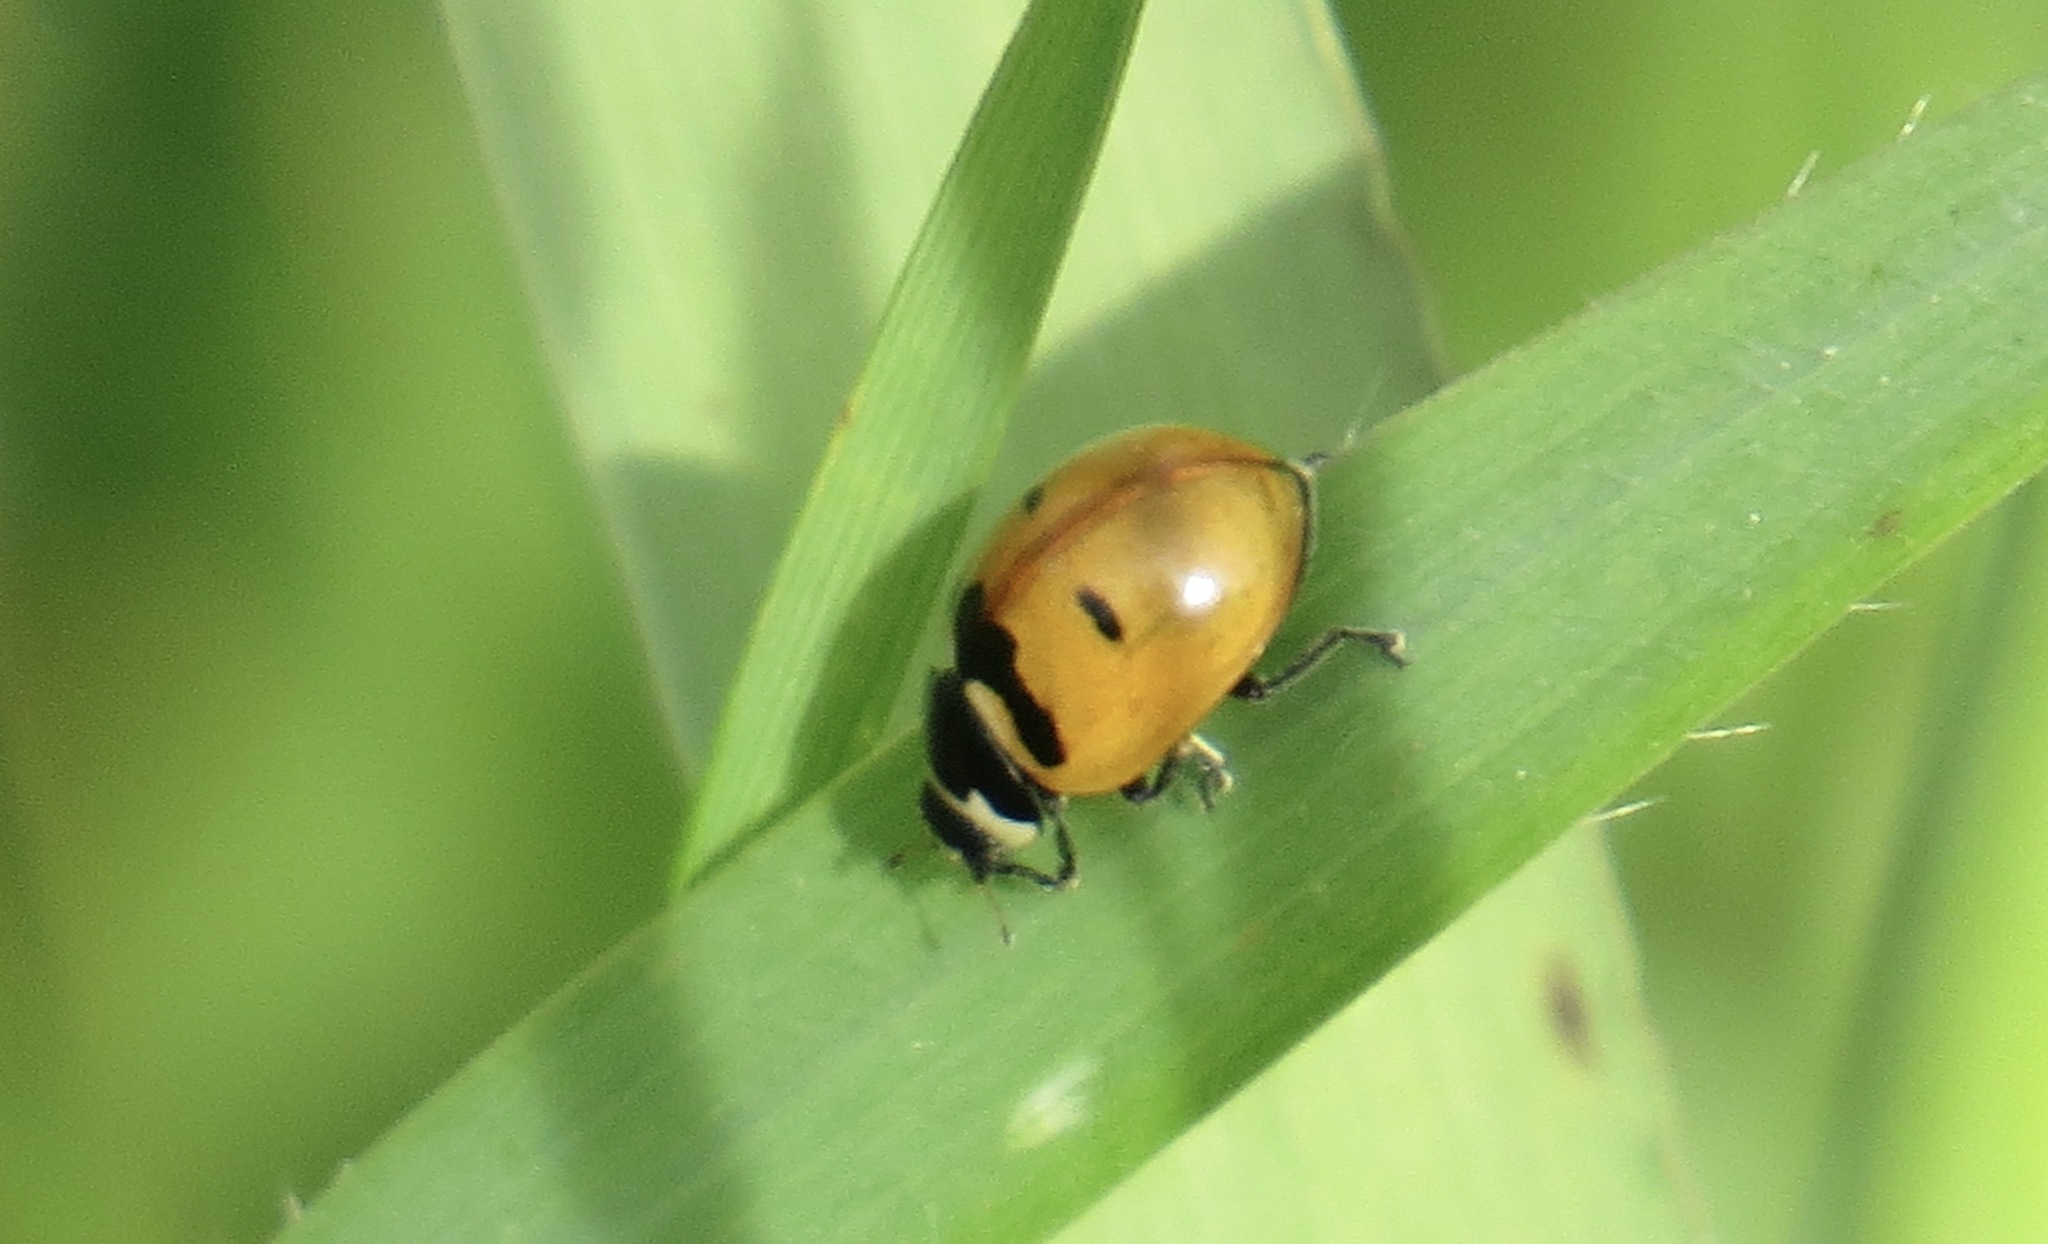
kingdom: Animalia
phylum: Arthropoda
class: Insecta
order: Coleoptera
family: Coccinellidae
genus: Coccinella
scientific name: Coccinella trifasciata
